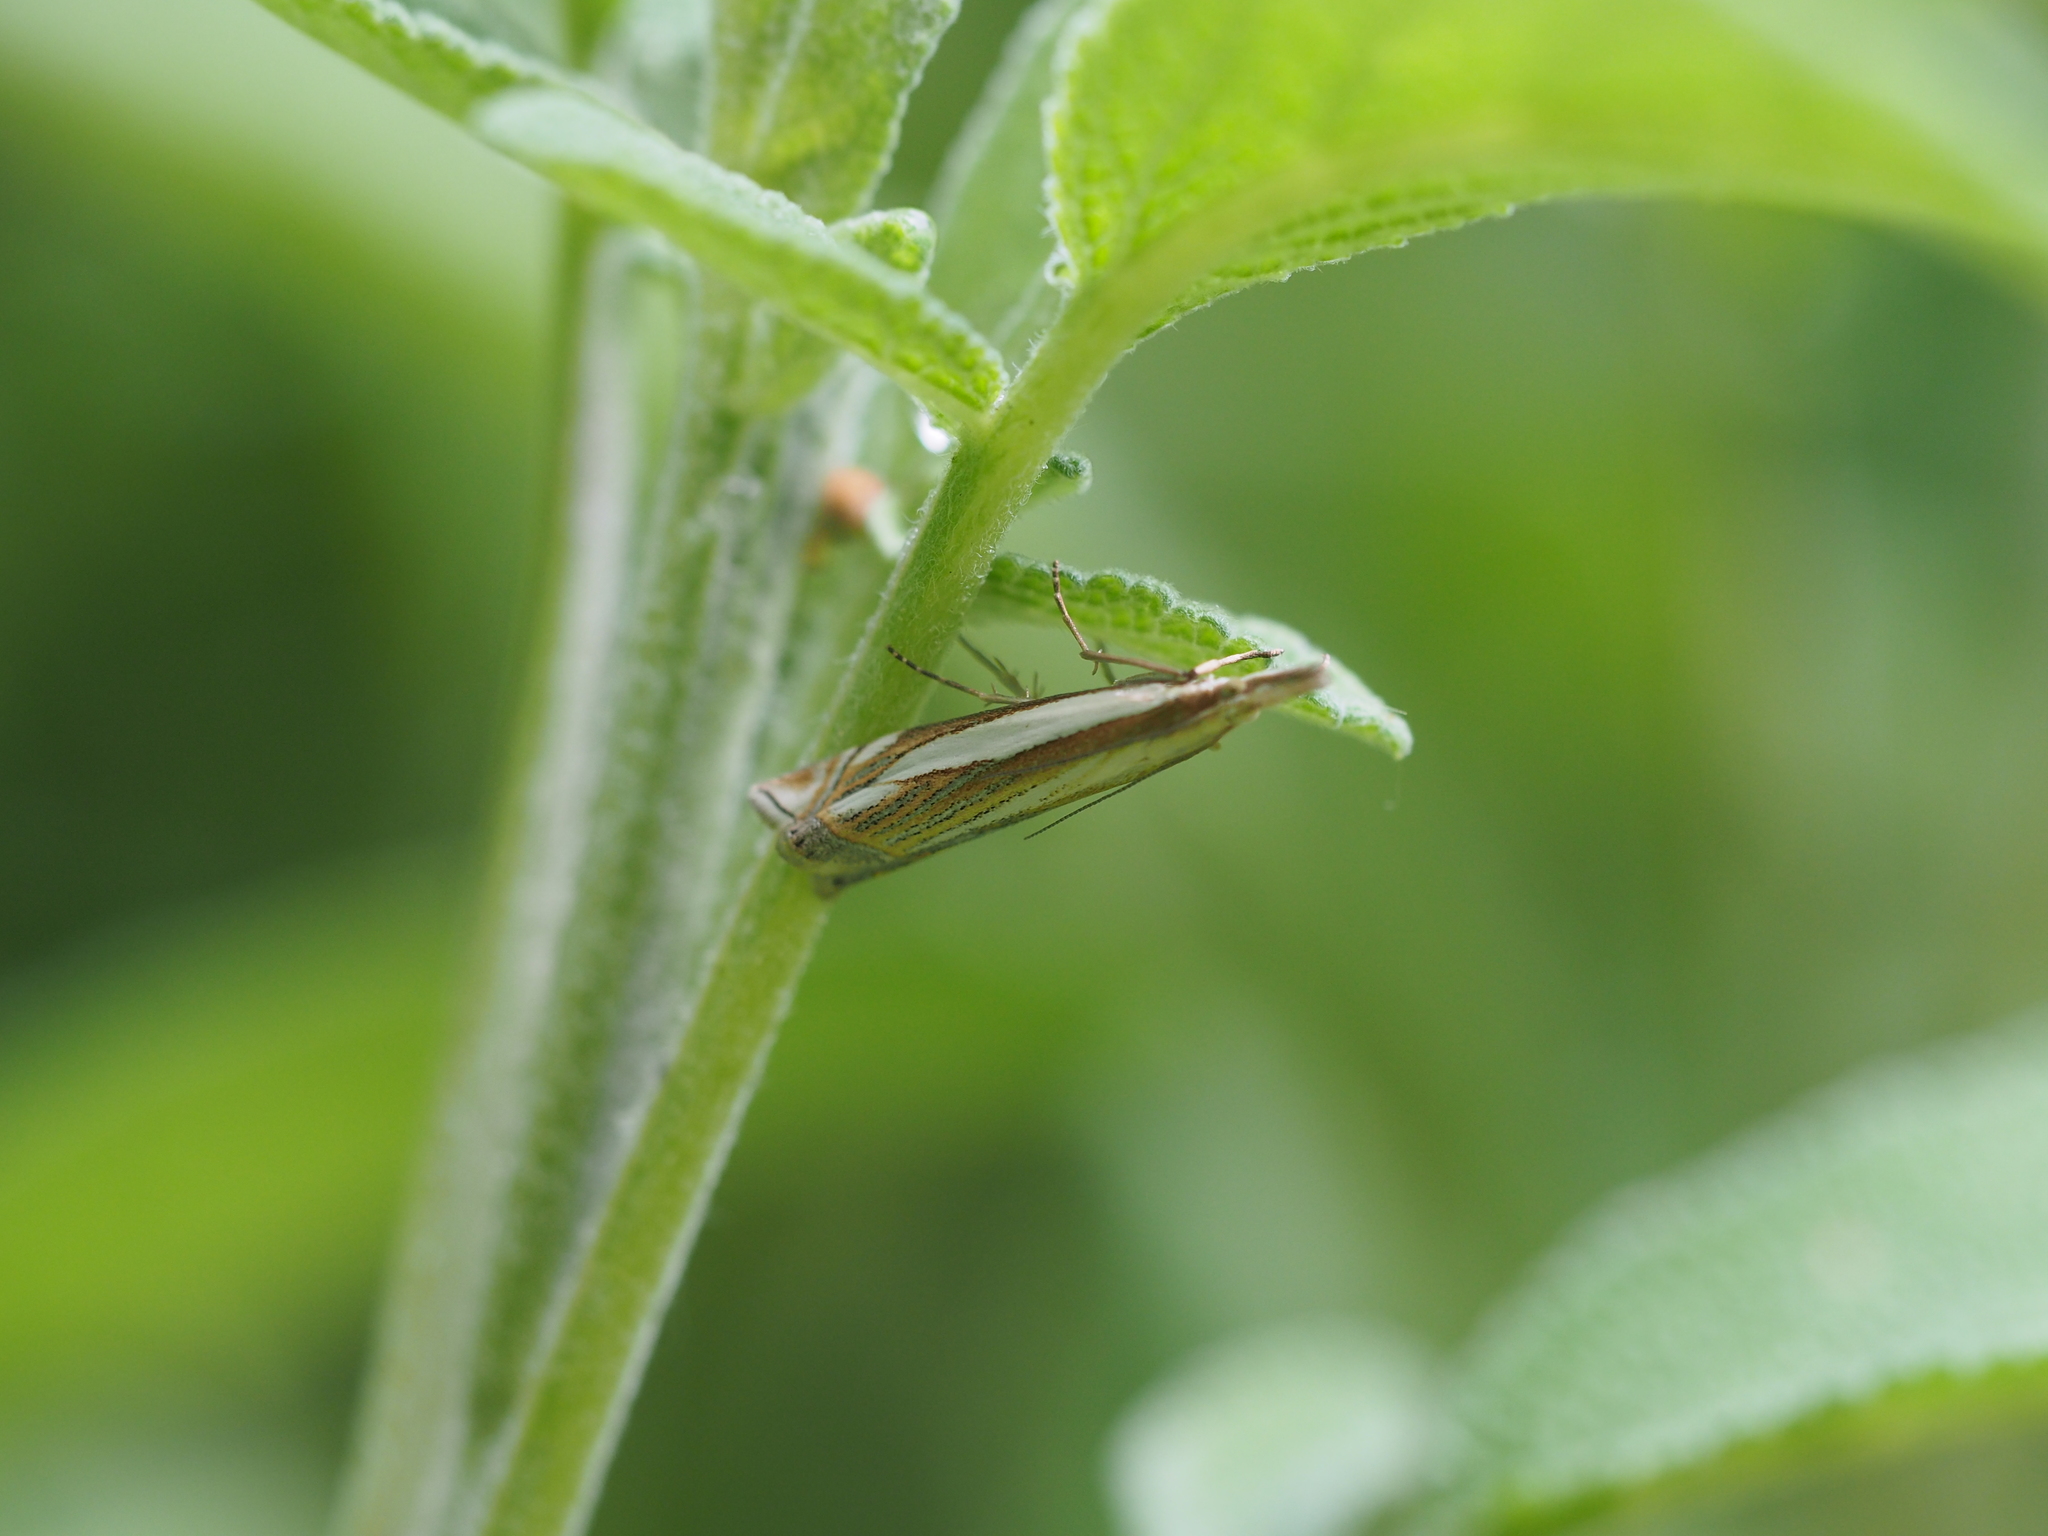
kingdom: Animalia
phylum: Arthropoda
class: Insecta
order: Lepidoptera
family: Crambidae
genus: Crambus
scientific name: Crambus pascuella
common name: Inlaid grass-veneer
